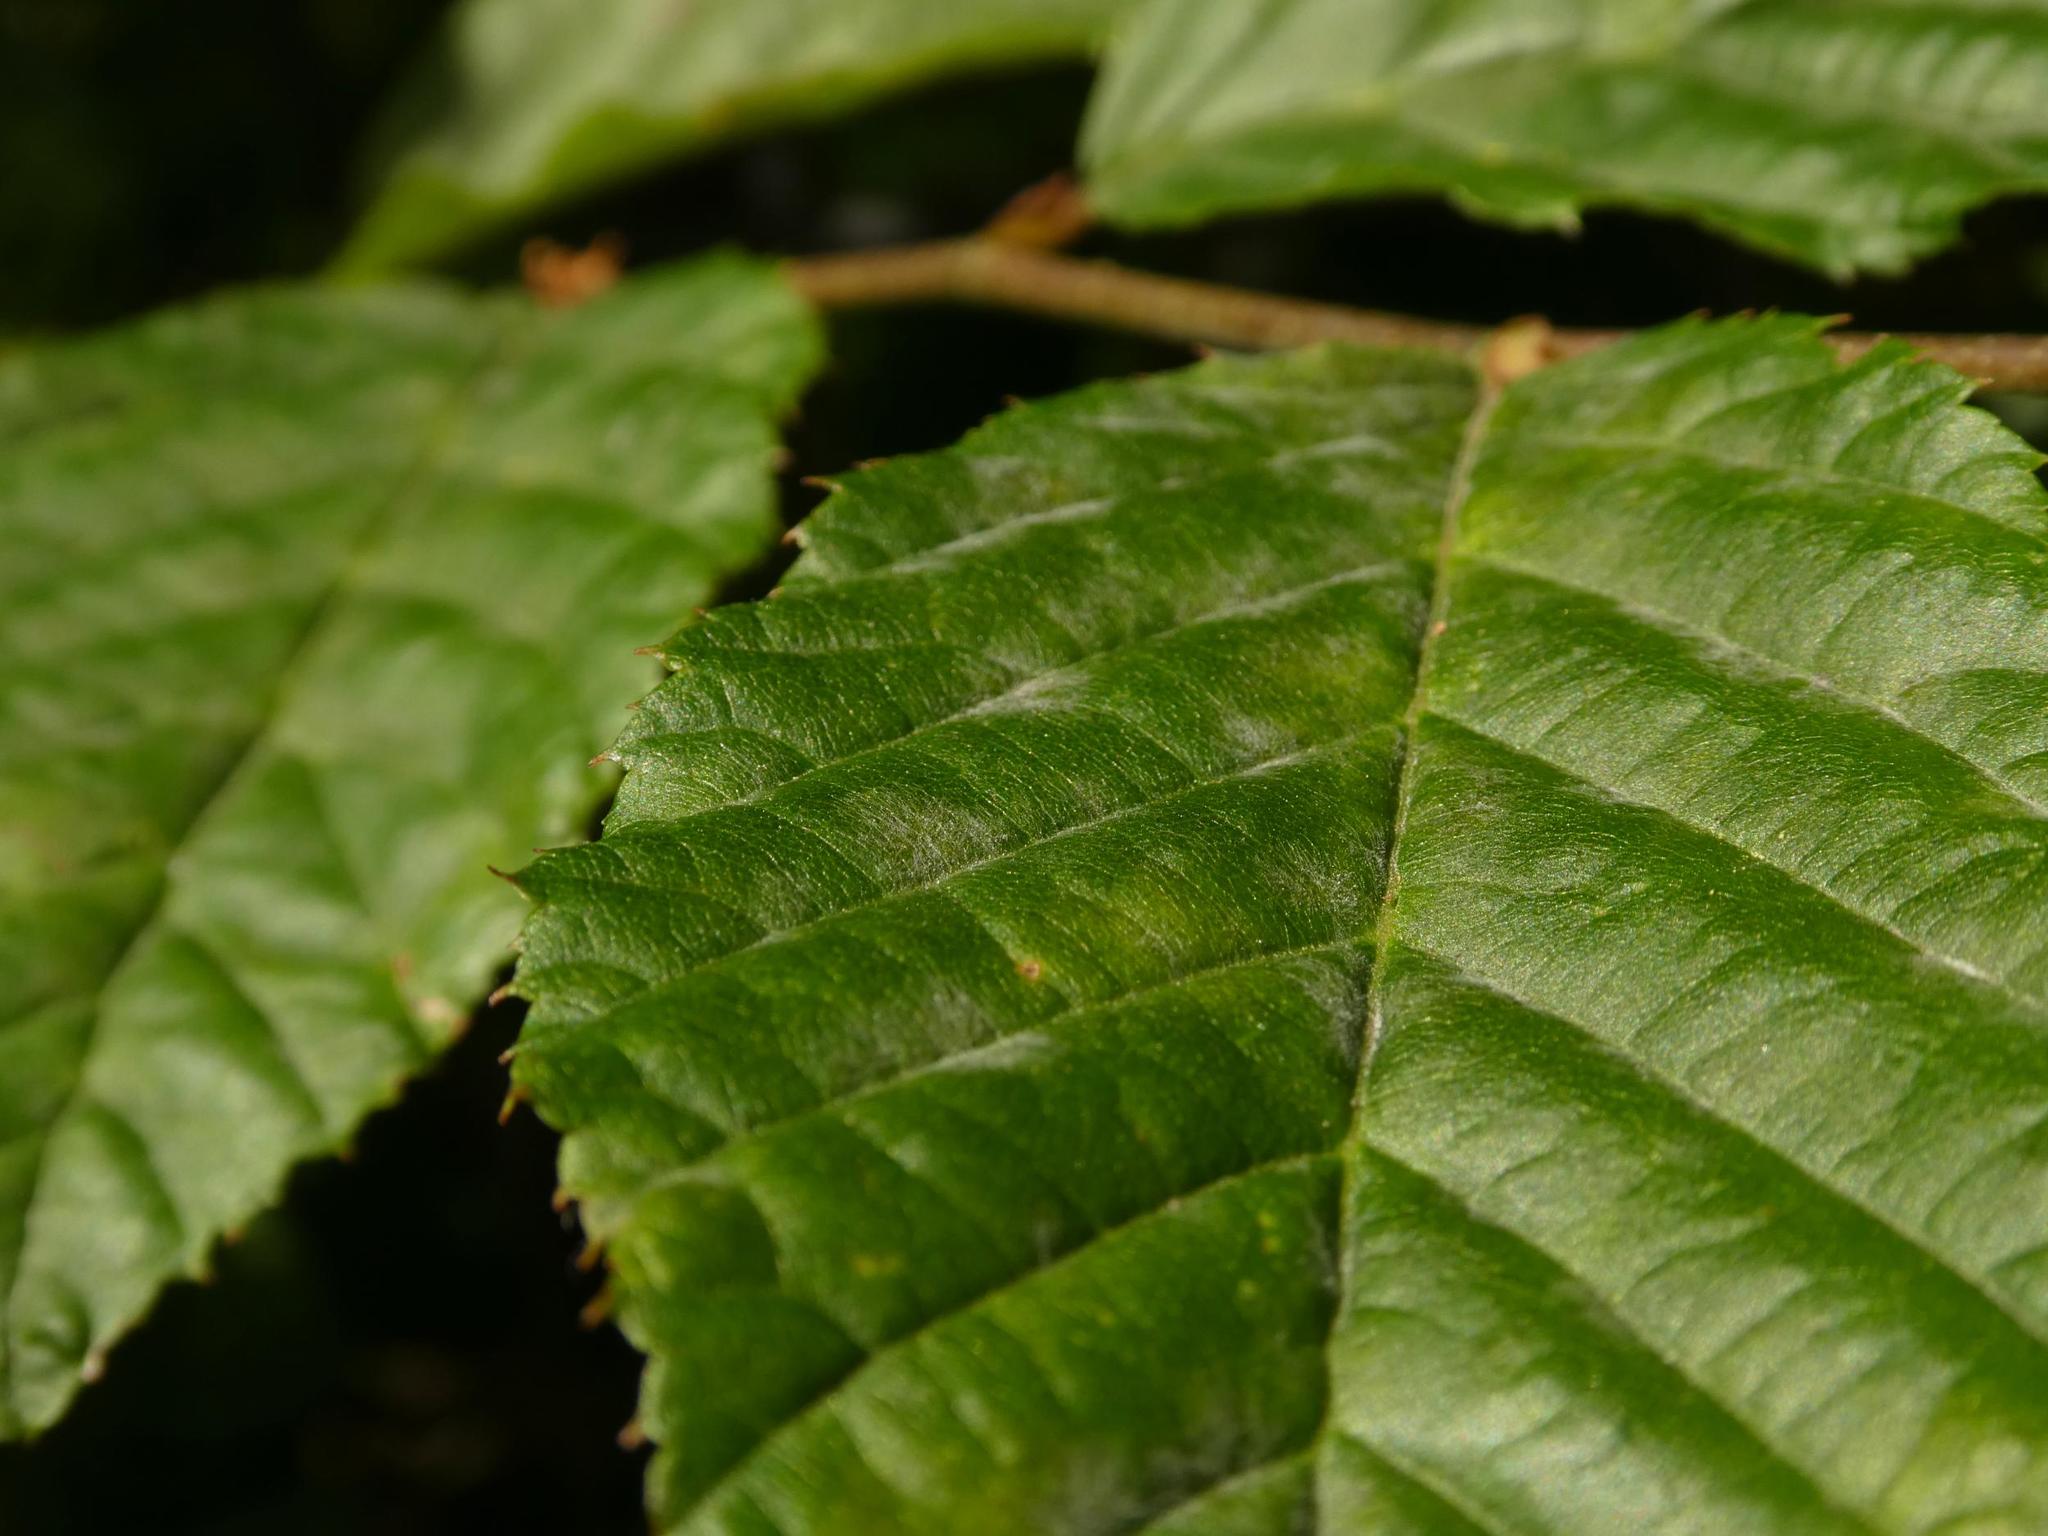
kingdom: Fungi
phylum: Ascomycota
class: Leotiomycetes
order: Helotiales
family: Erysiphaceae
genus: Erysiphe
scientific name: Erysiphe arcuata
